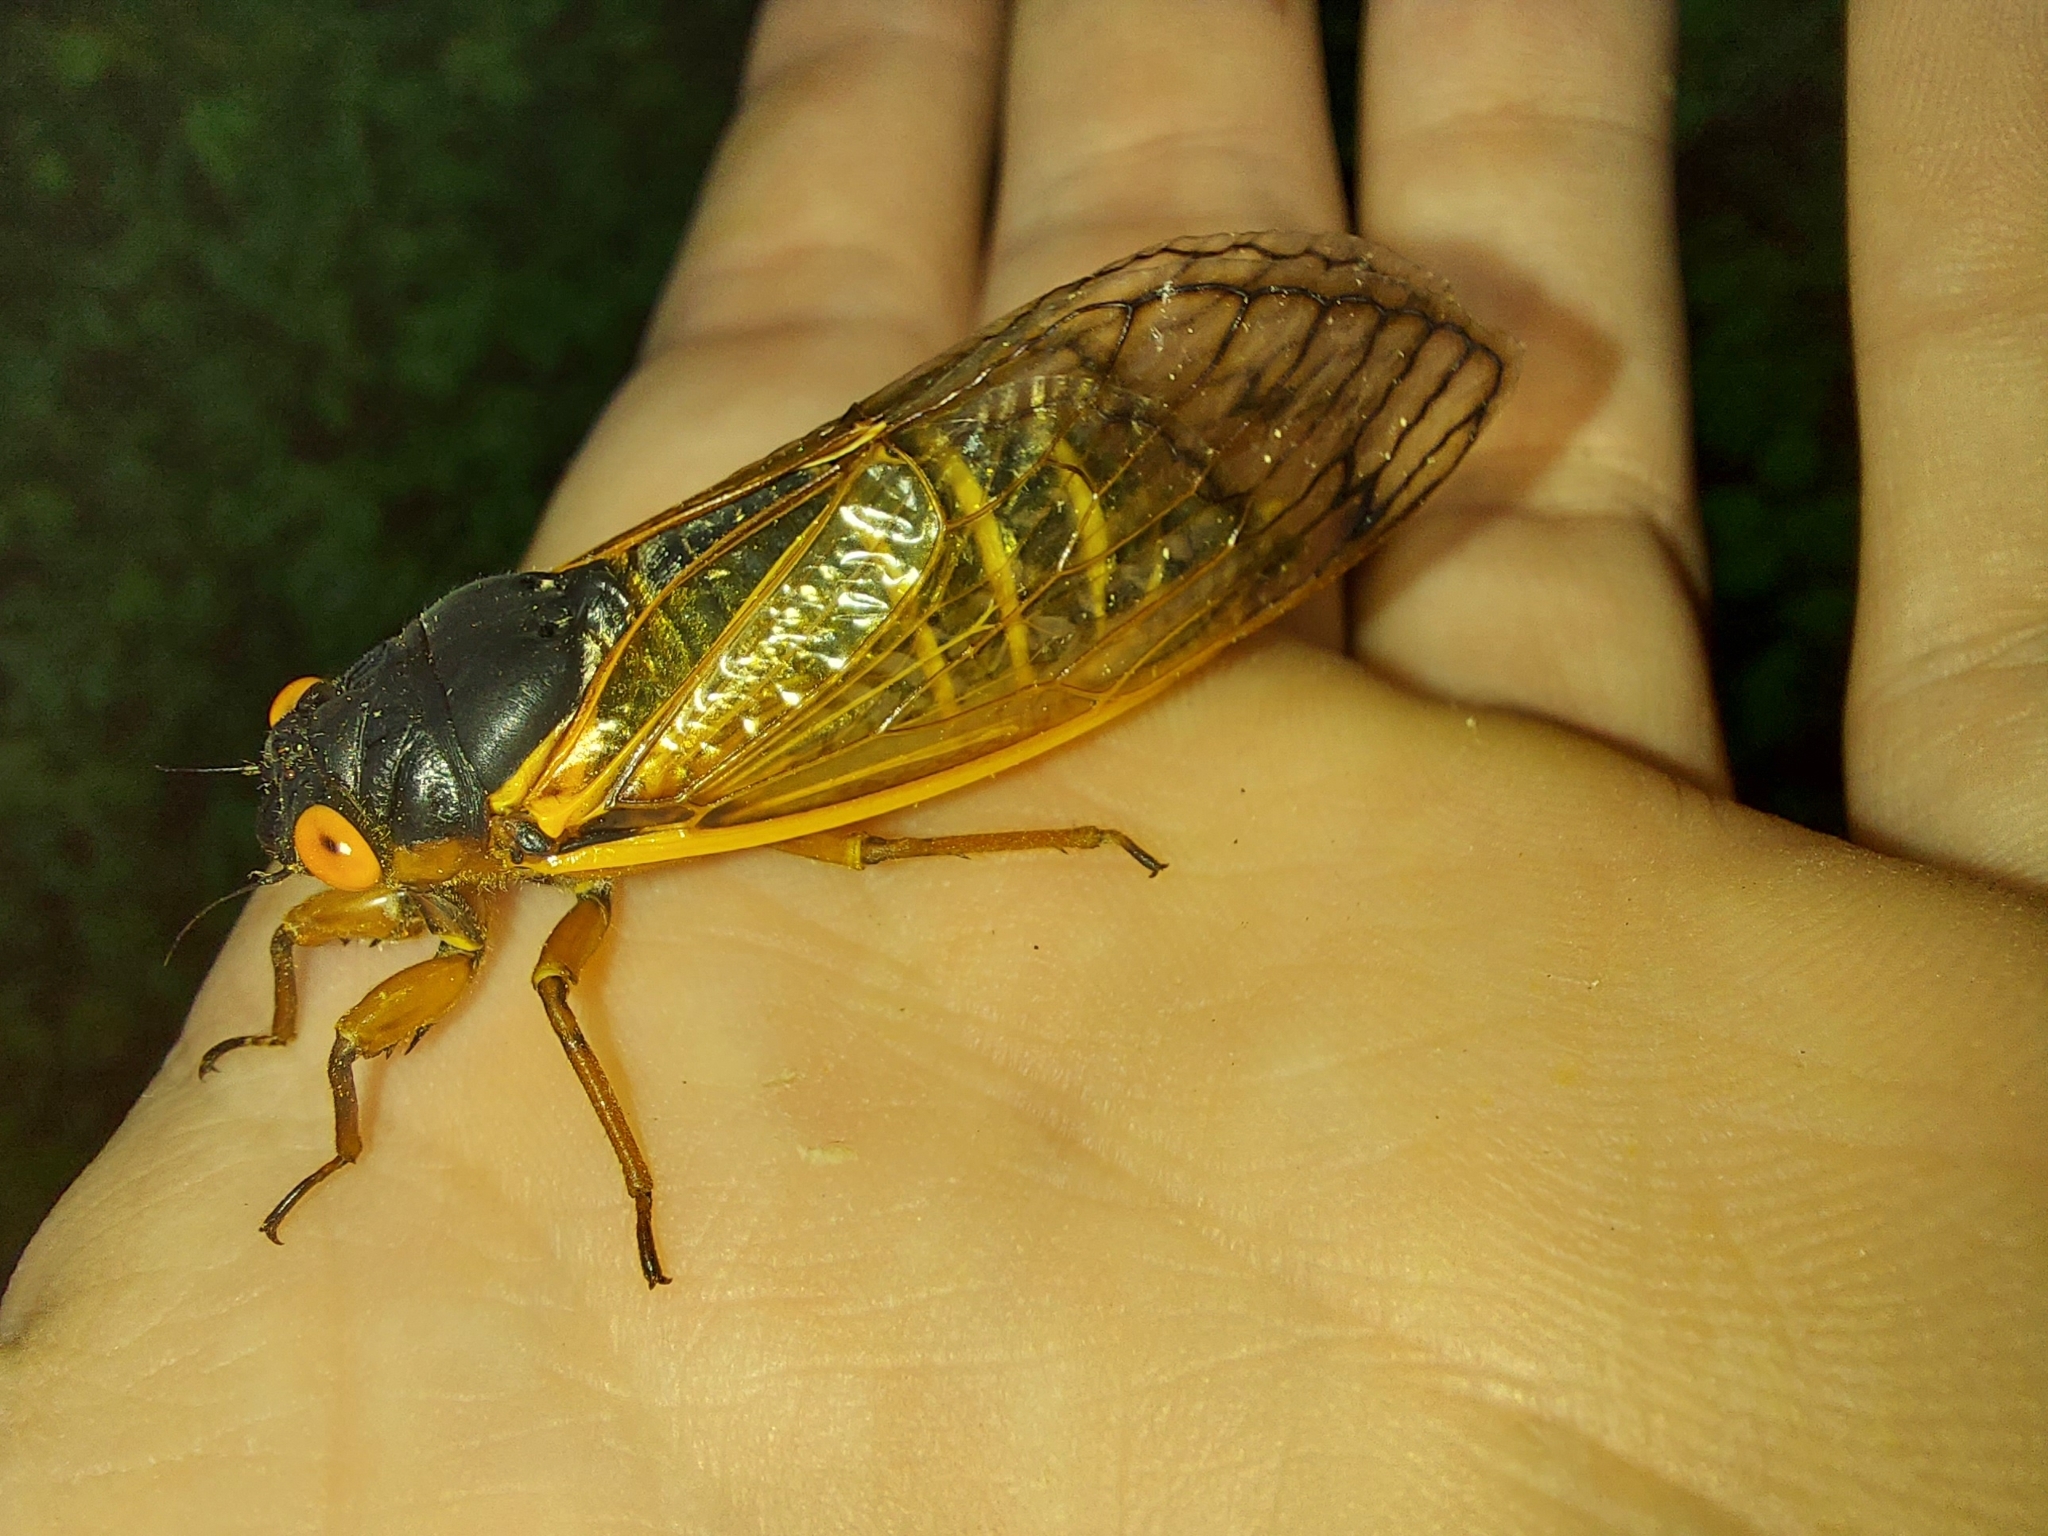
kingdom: Animalia
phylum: Arthropoda
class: Insecta
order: Hemiptera
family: Cicadidae
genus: Magicicada
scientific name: Magicicada septendecim
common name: Periodical cicada
